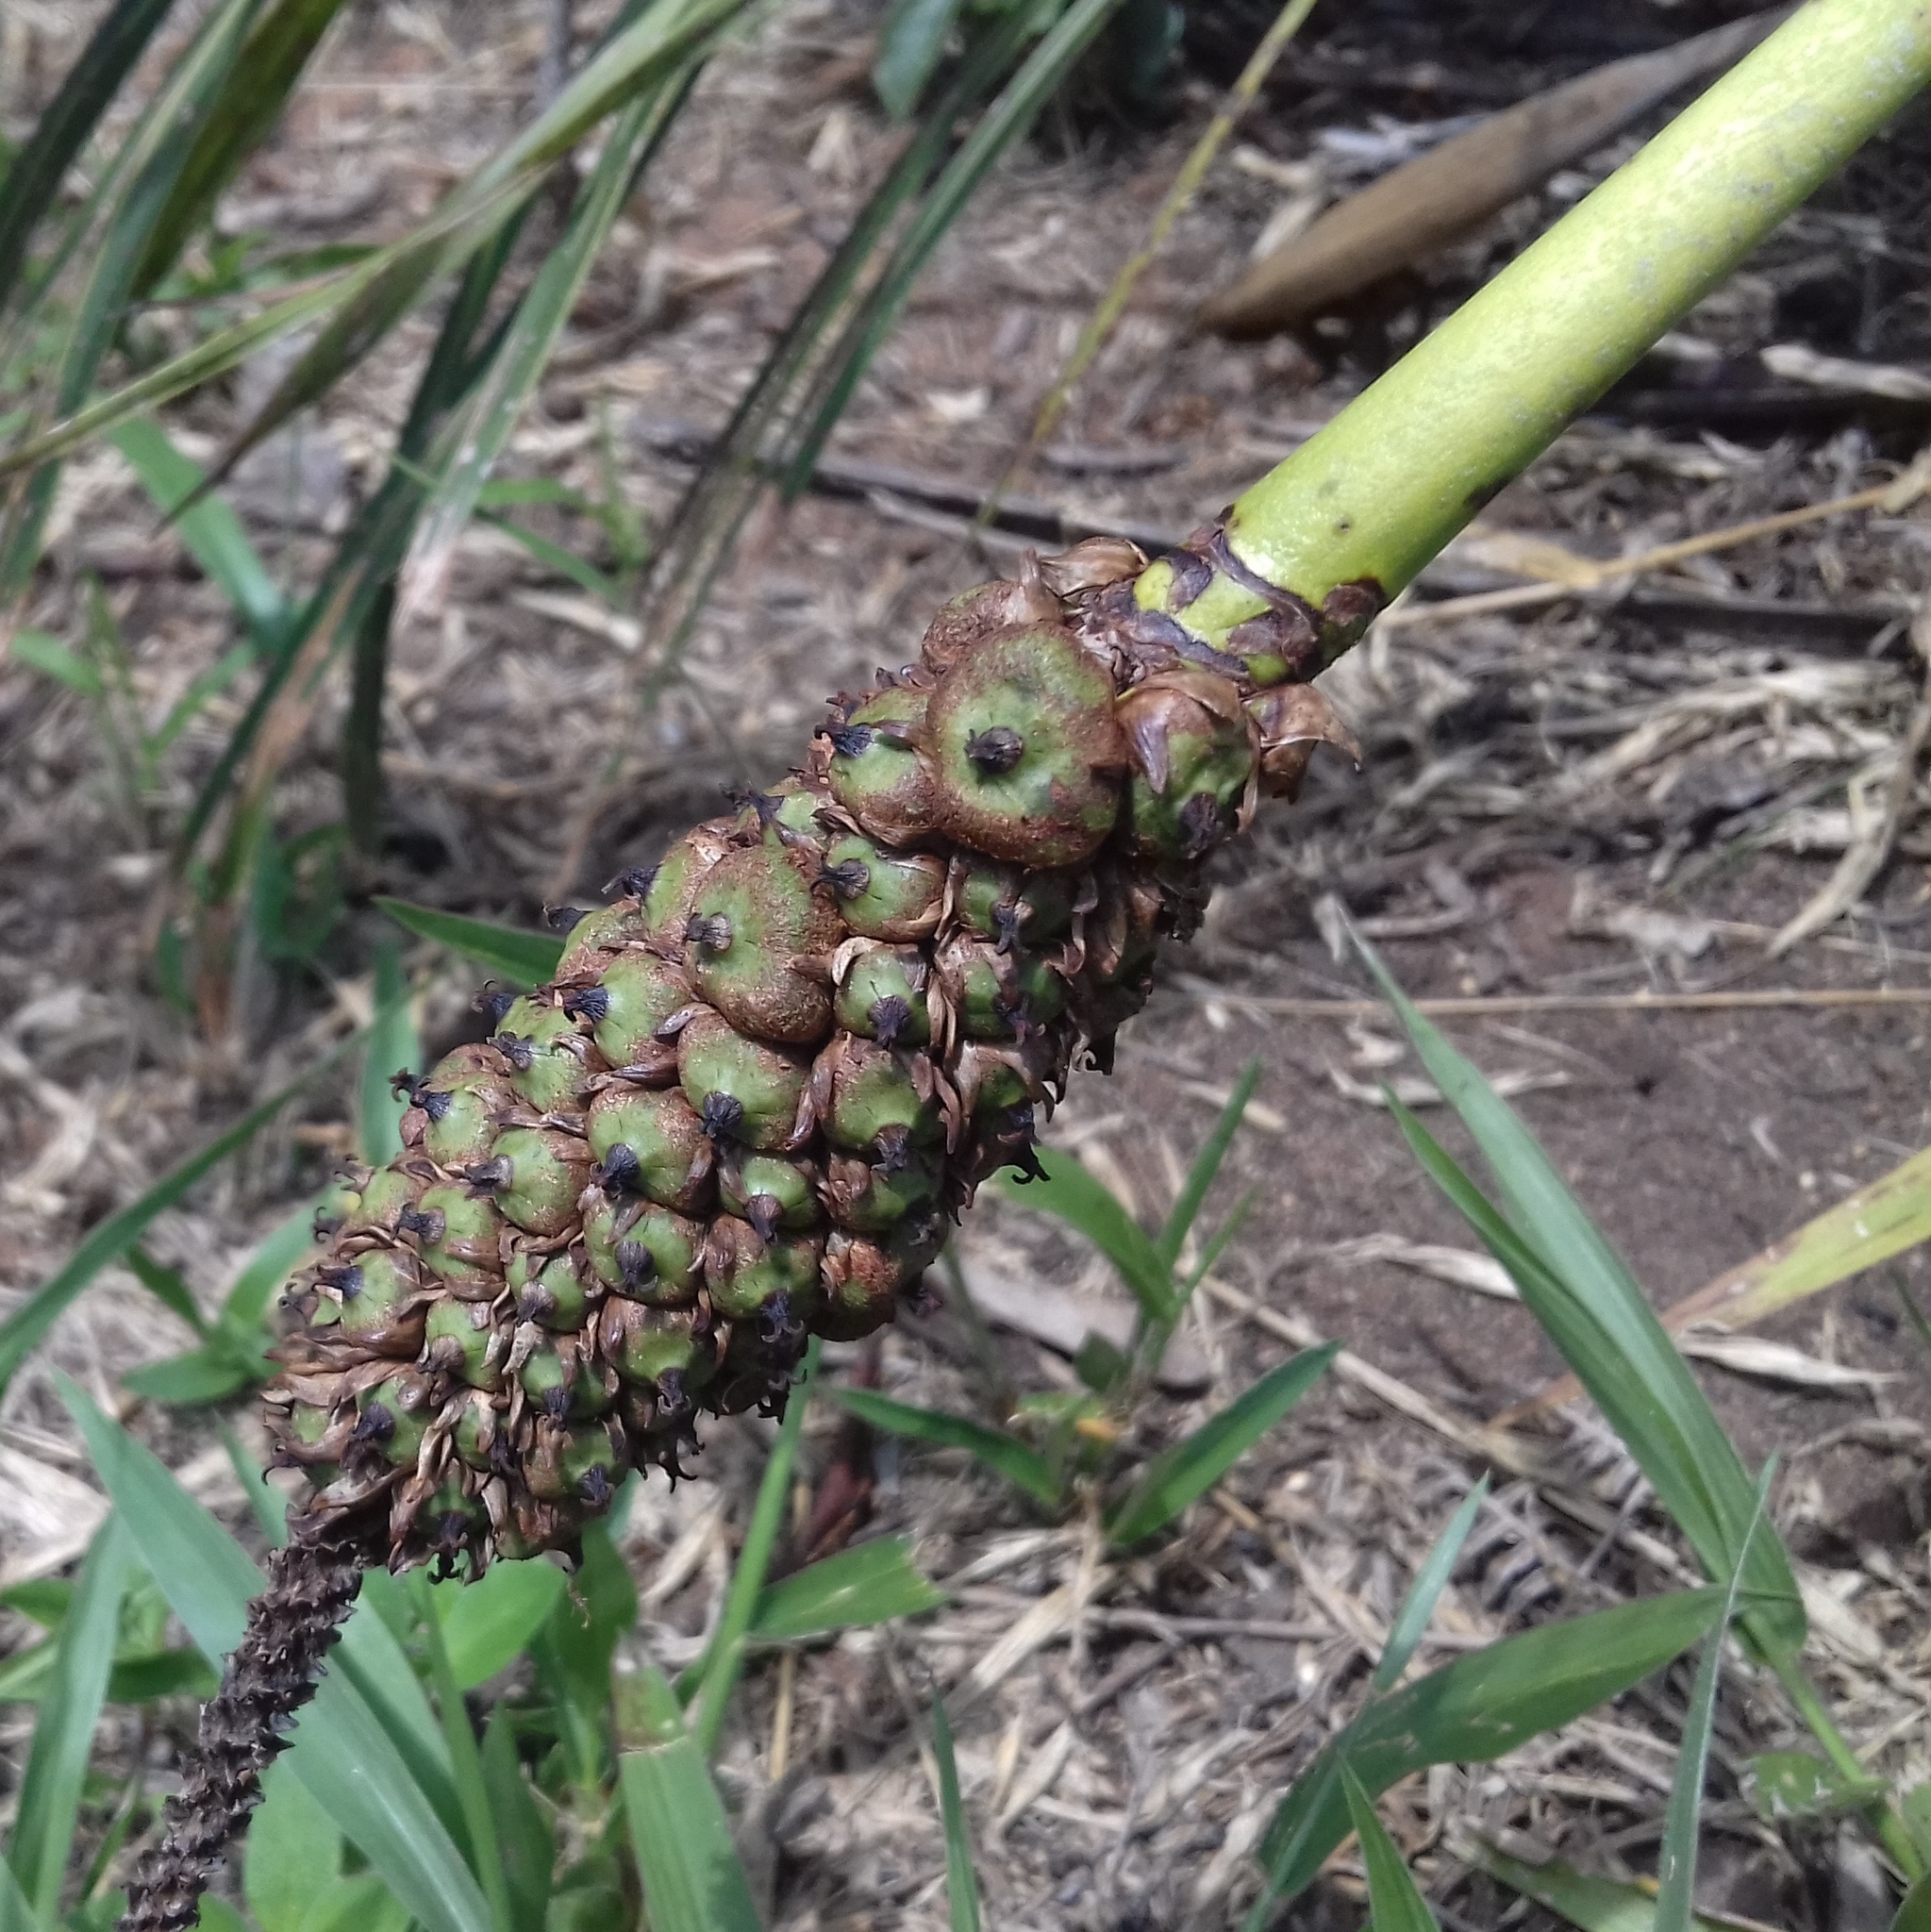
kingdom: Plantae
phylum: Tracheophyta
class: Liliopsida
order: Arecales
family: Arecaceae
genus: Allagoptera
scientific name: Allagoptera campestris
